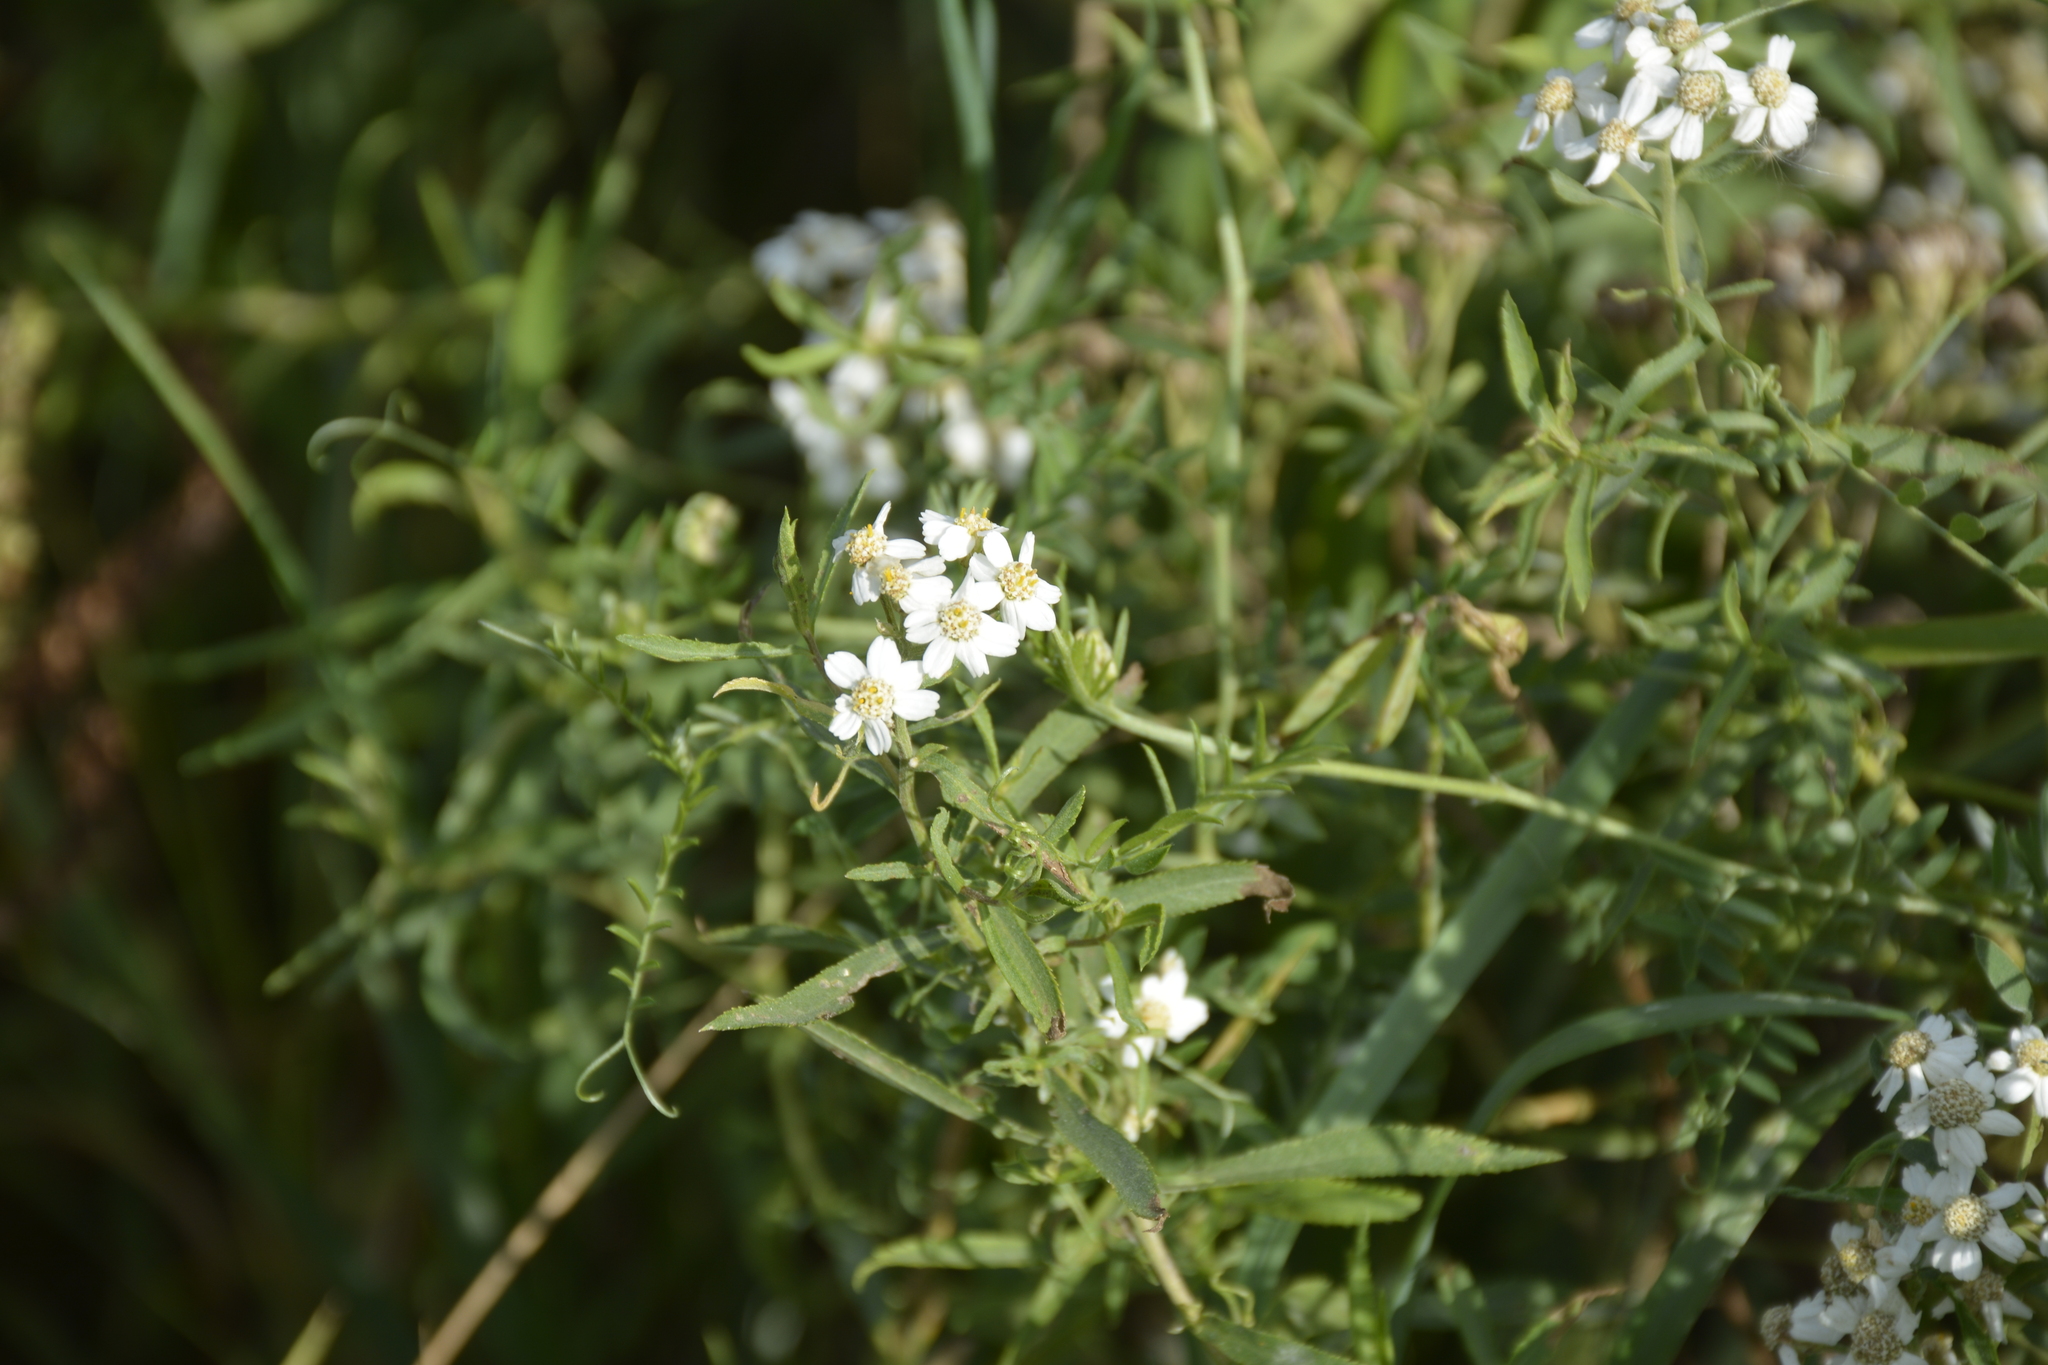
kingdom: Plantae
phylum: Tracheophyta
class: Magnoliopsida
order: Asterales
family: Asteraceae
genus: Achillea
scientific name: Achillea salicifolia
